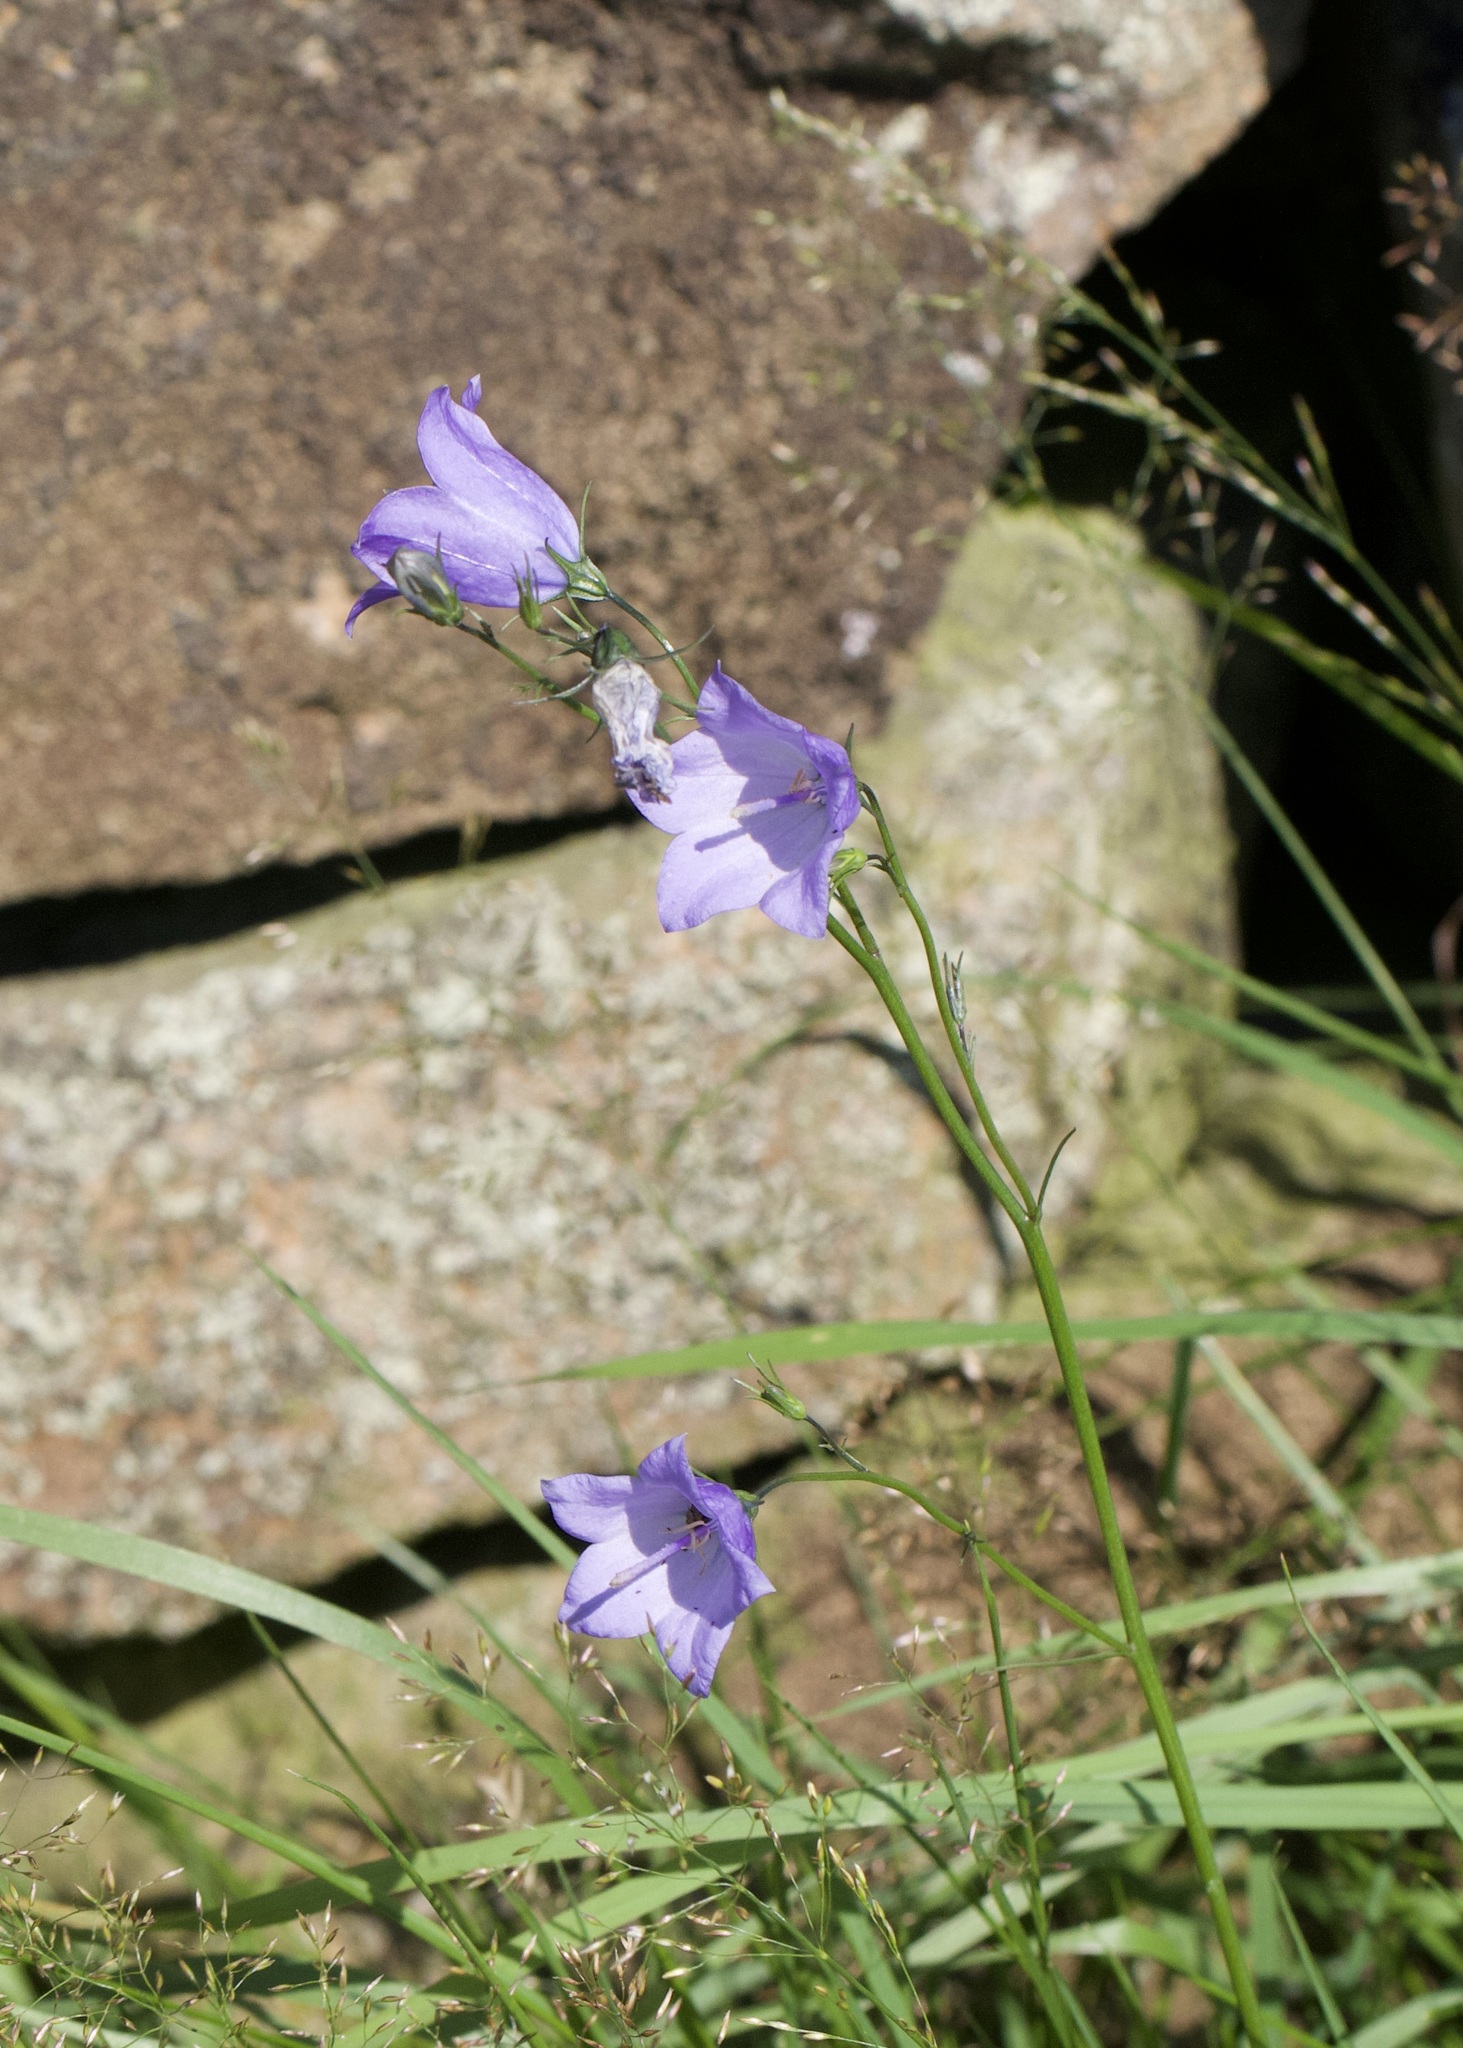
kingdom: Plantae
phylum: Tracheophyta
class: Magnoliopsida
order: Asterales
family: Campanulaceae
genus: Campanula
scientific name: Campanula rotundifolia
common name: Harebell
